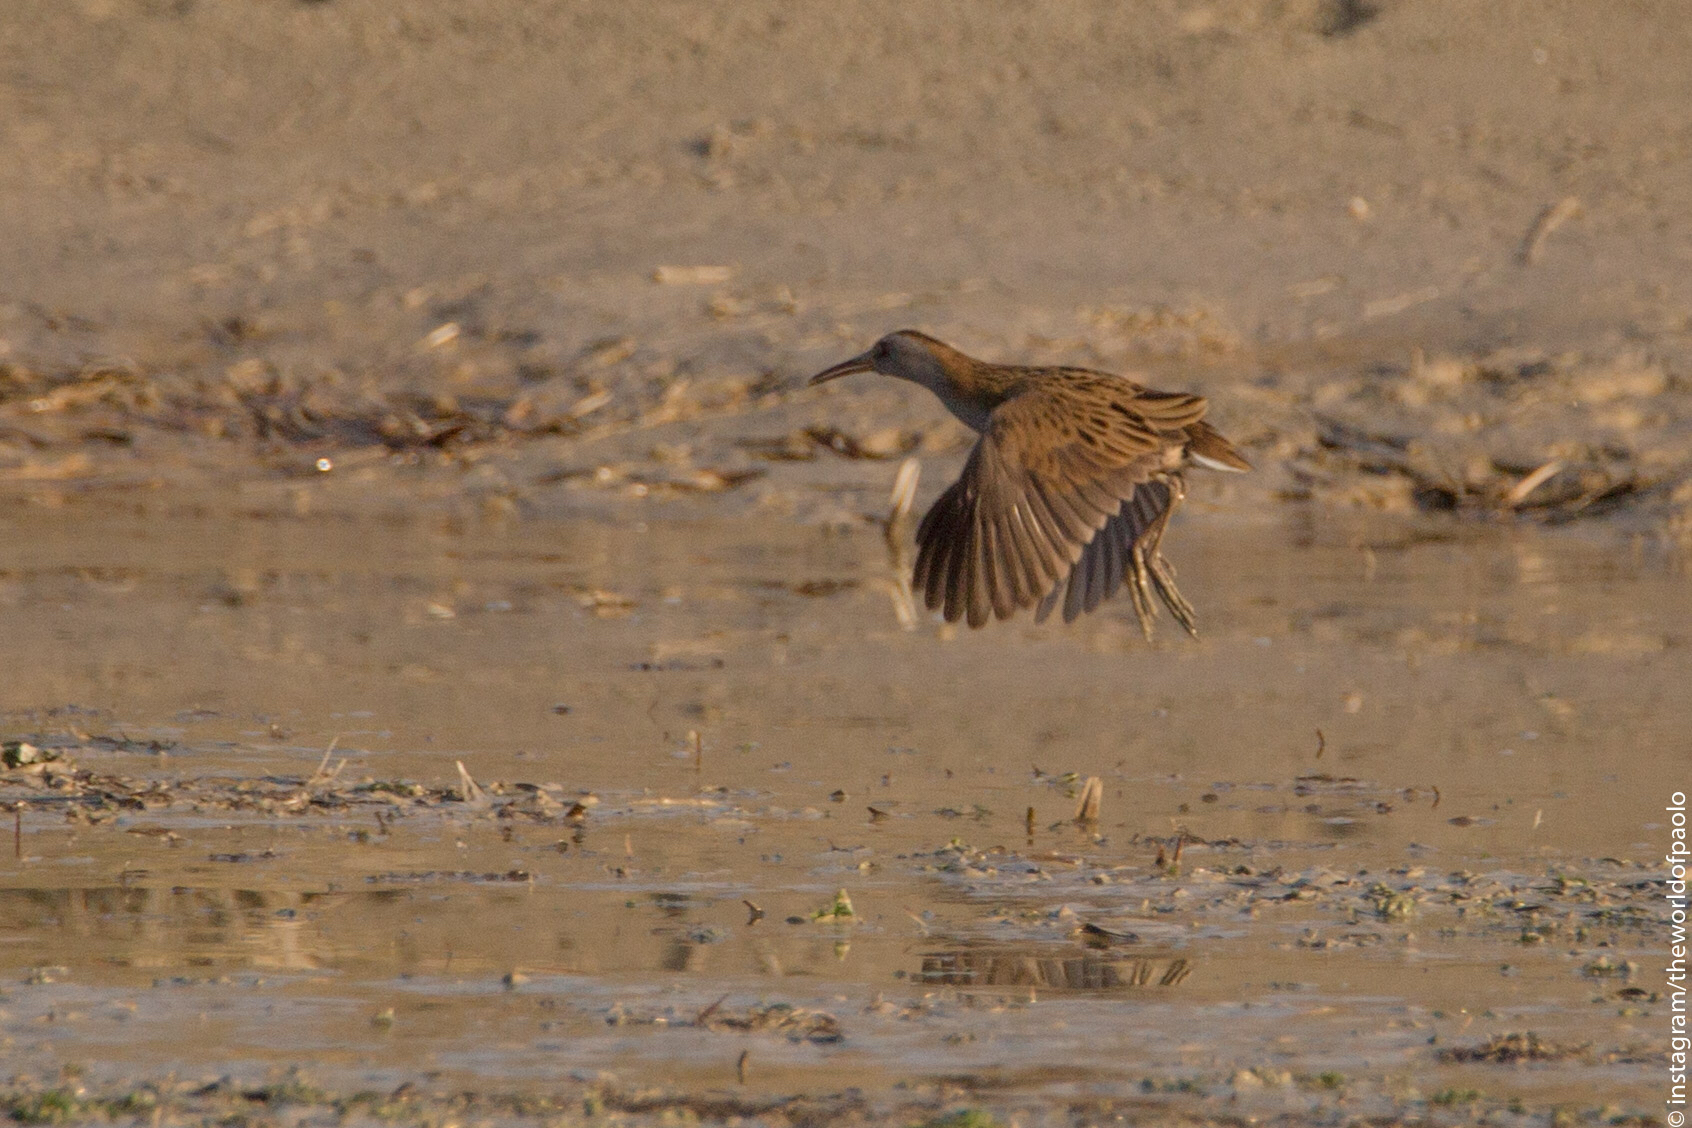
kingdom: Animalia
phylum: Chordata
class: Aves
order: Gruiformes
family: Rallidae
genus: Rallus
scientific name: Rallus aquaticus
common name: Water rail
